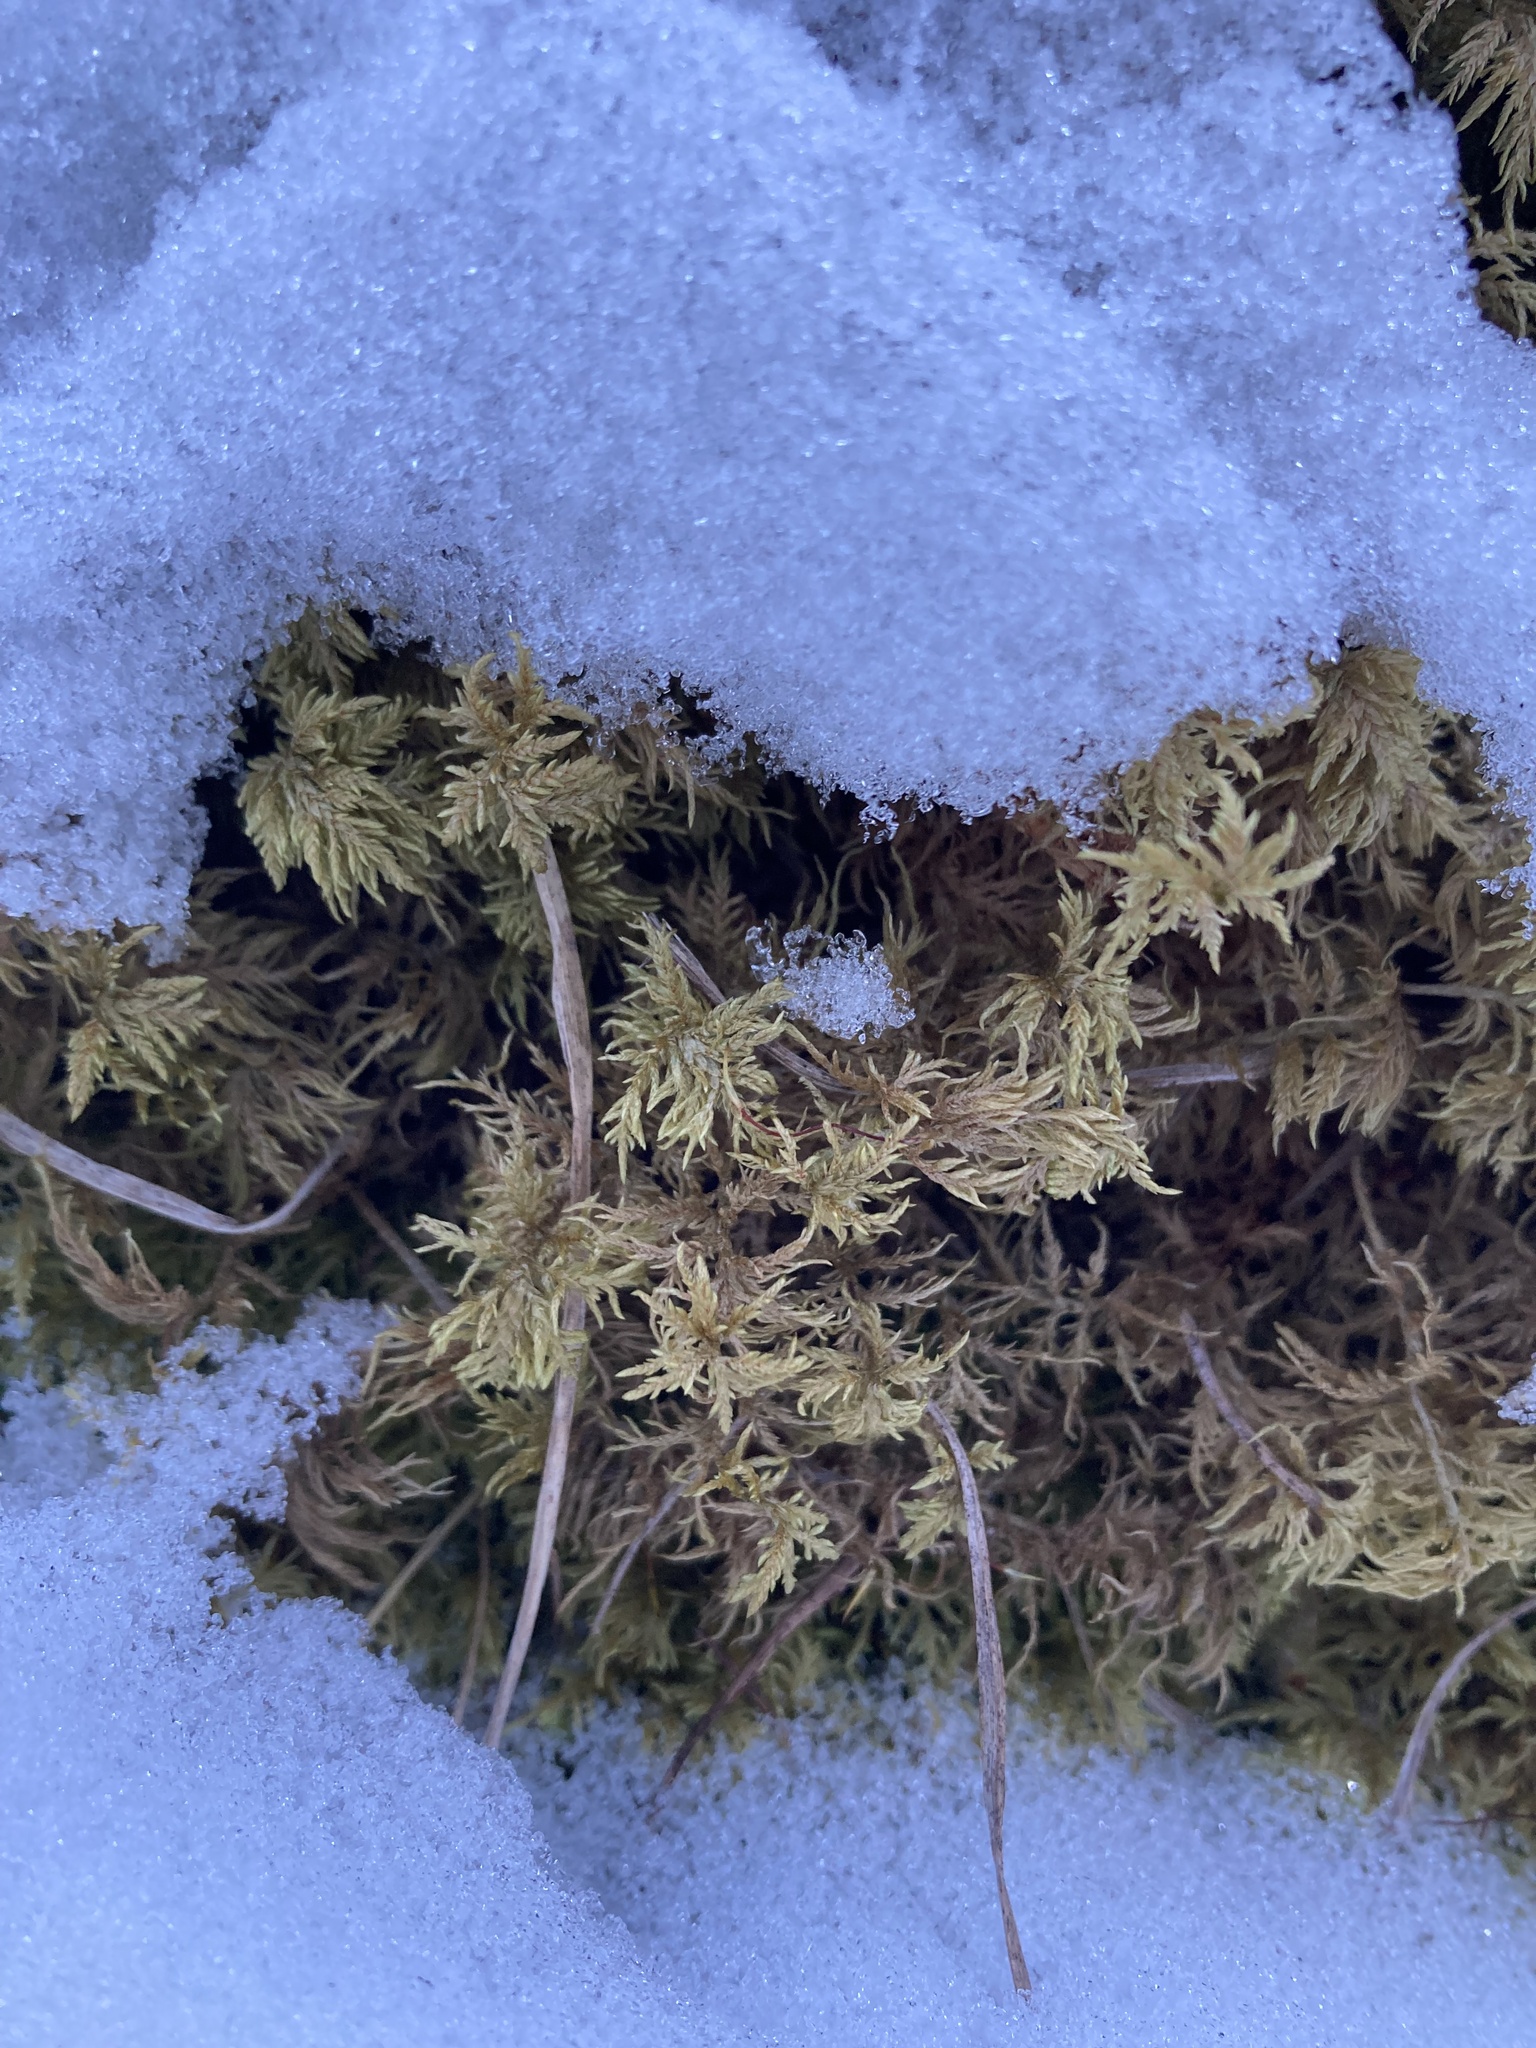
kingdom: Plantae
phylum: Bryophyta
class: Bryopsida
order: Hypnales
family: Hylocomiaceae
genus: Hylocomium
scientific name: Hylocomium splendens
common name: Stairstep moss
